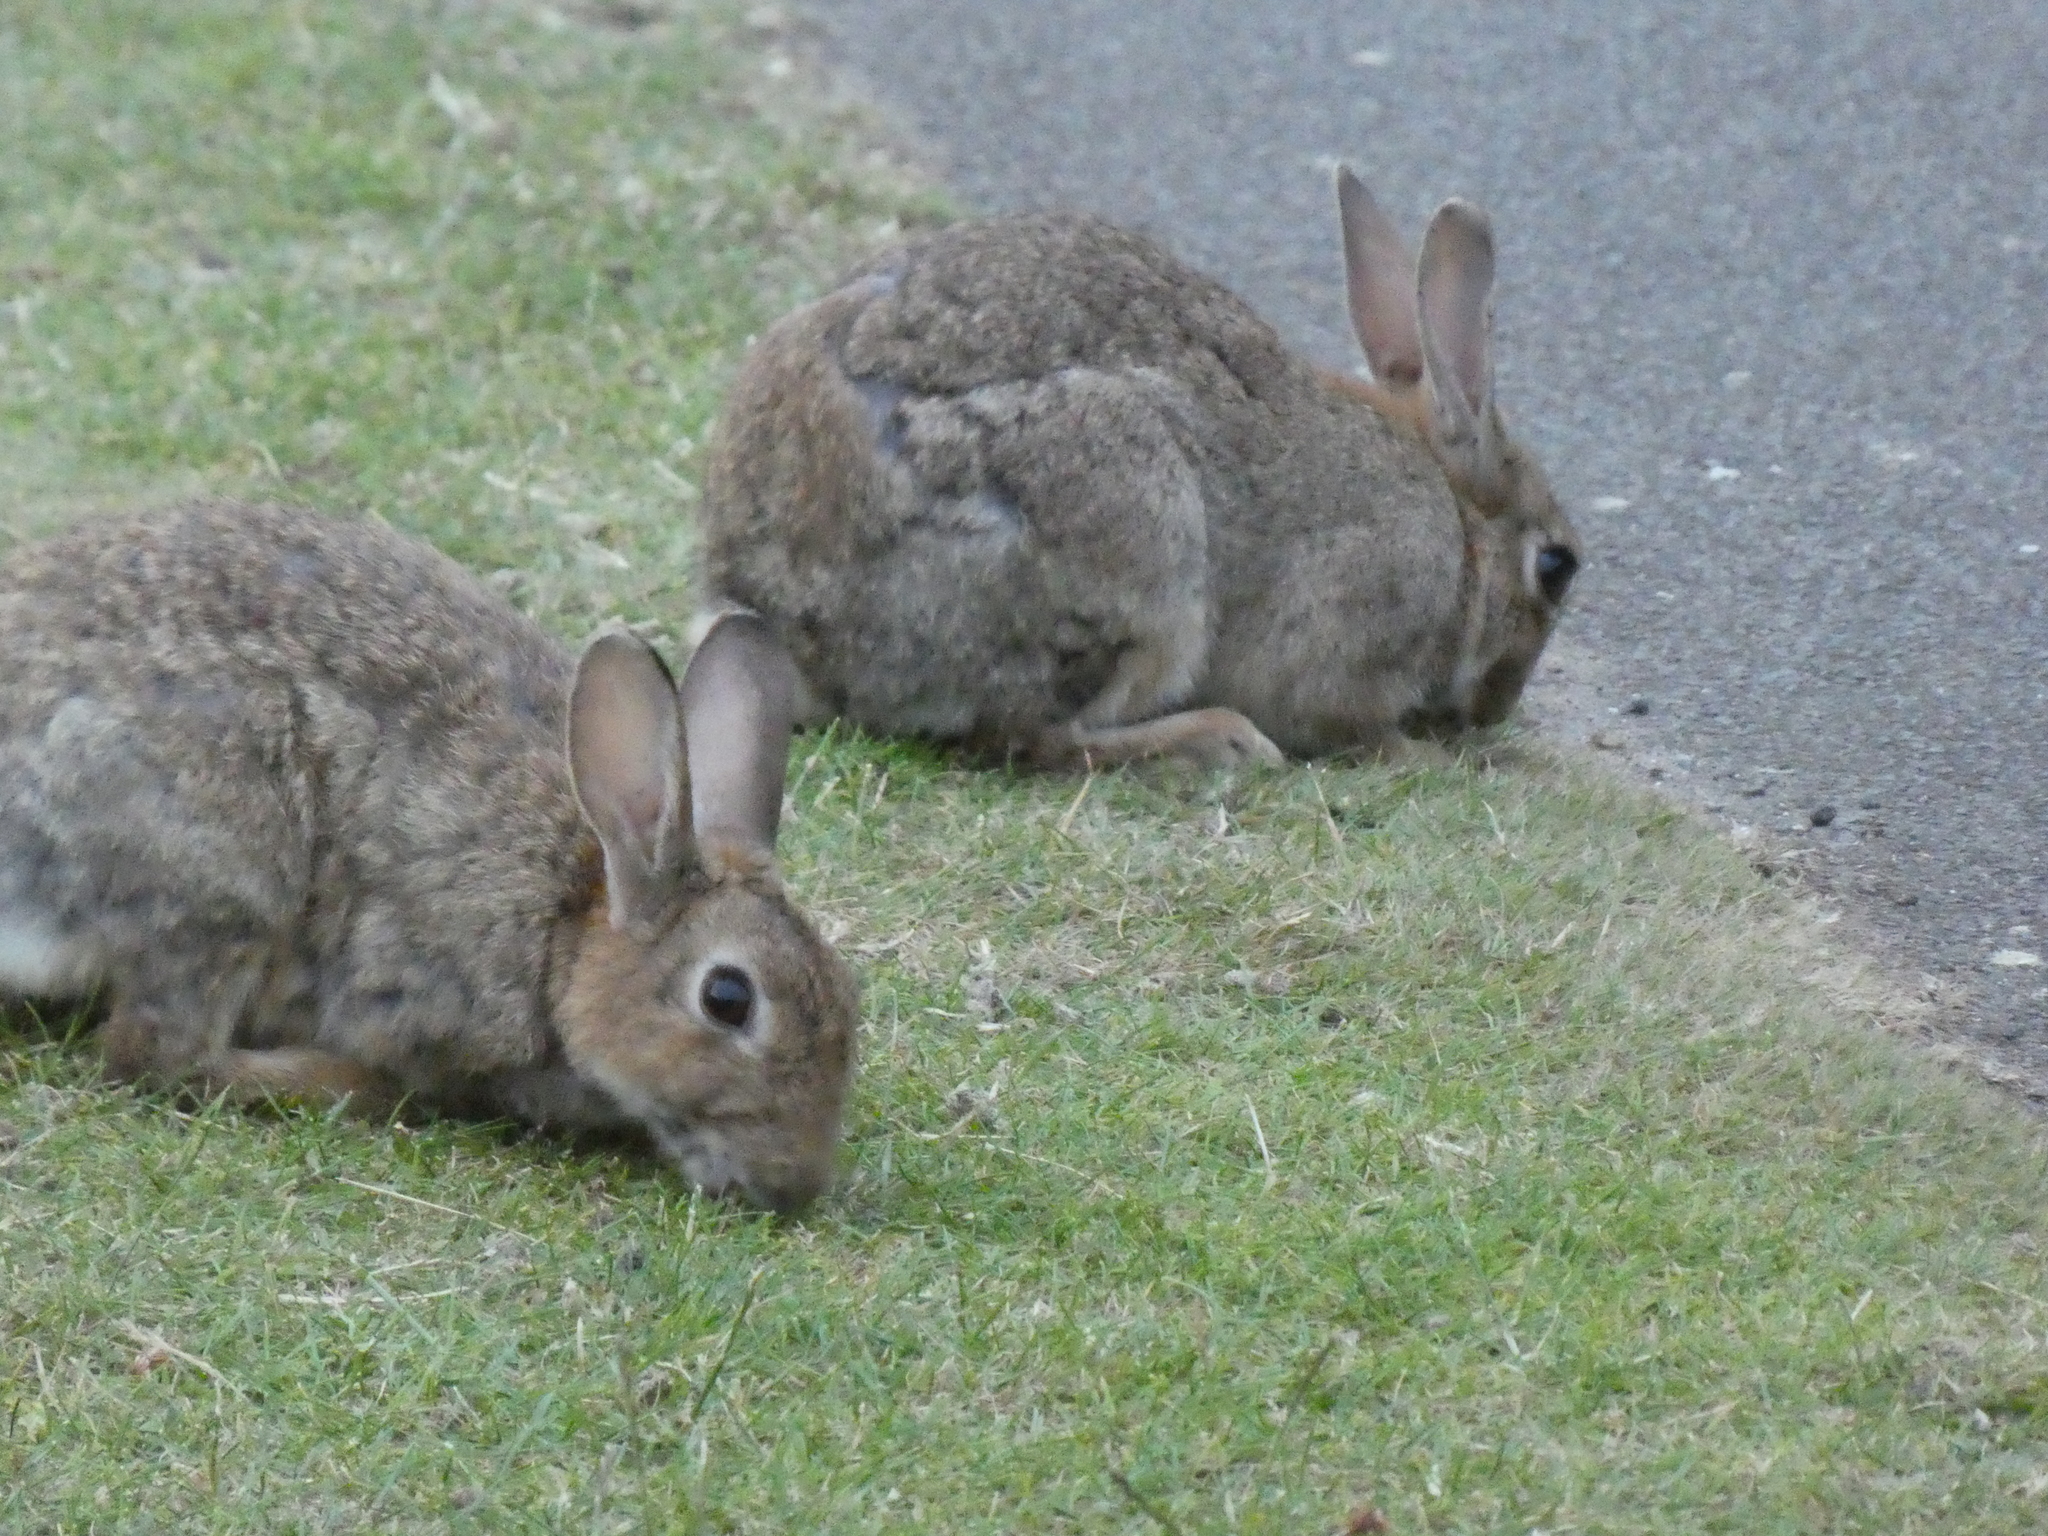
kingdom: Animalia
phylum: Chordata
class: Mammalia
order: Lagomorpha
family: Leporidae
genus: Oryctolagus
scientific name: Oryctolagus cuniculus
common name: European rabbit
